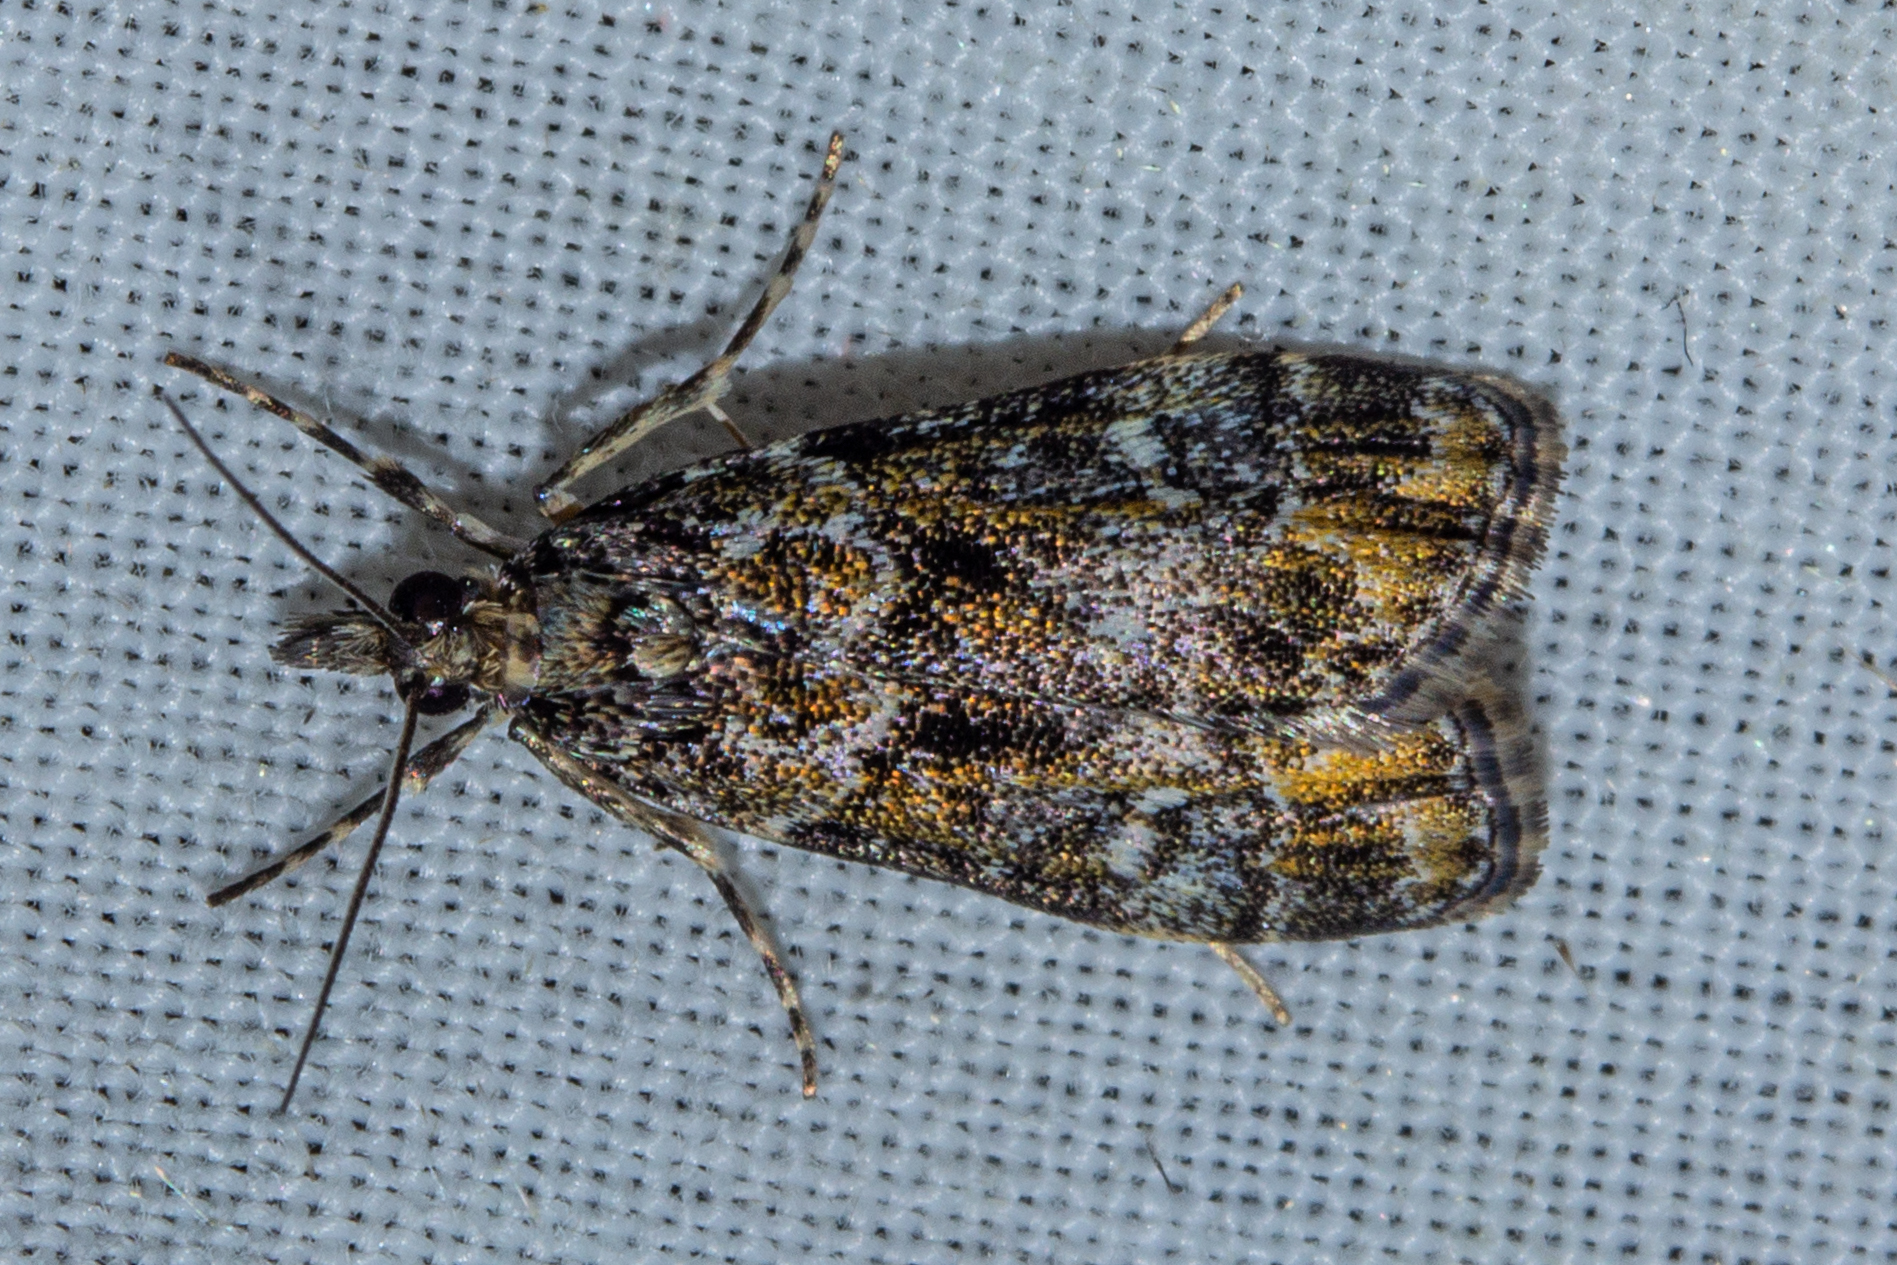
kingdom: Animalia
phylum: Arthropoda
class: Insecta
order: Lepidoptera
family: Crambidae
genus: Eudonia
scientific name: Eudonia minualis
